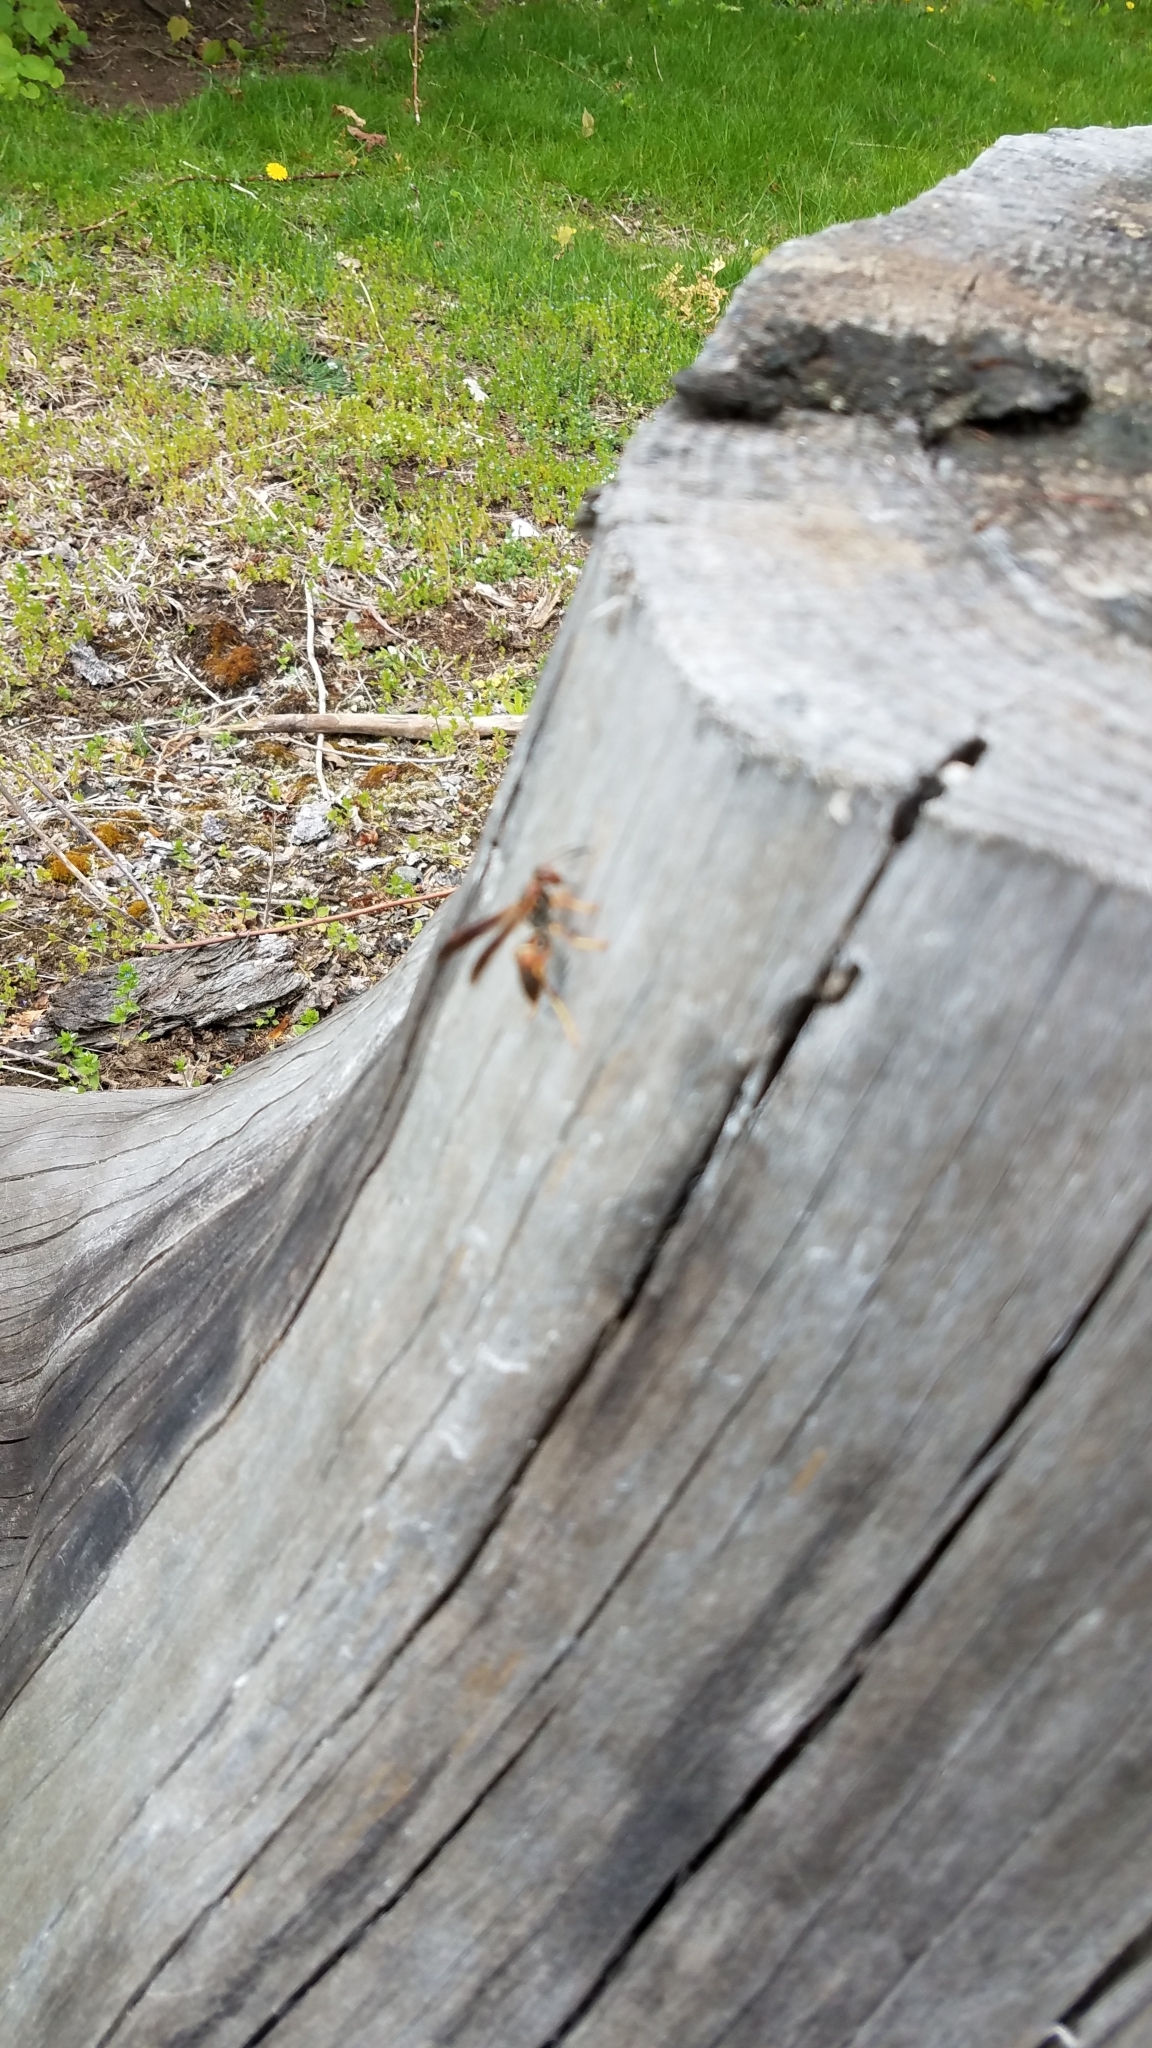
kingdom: Animalia
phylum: Arthropoda
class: Insecta
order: Hymenoptera
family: Eumenidae
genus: Polistes
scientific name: Polistes fuscatus
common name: Dark paper wasp
